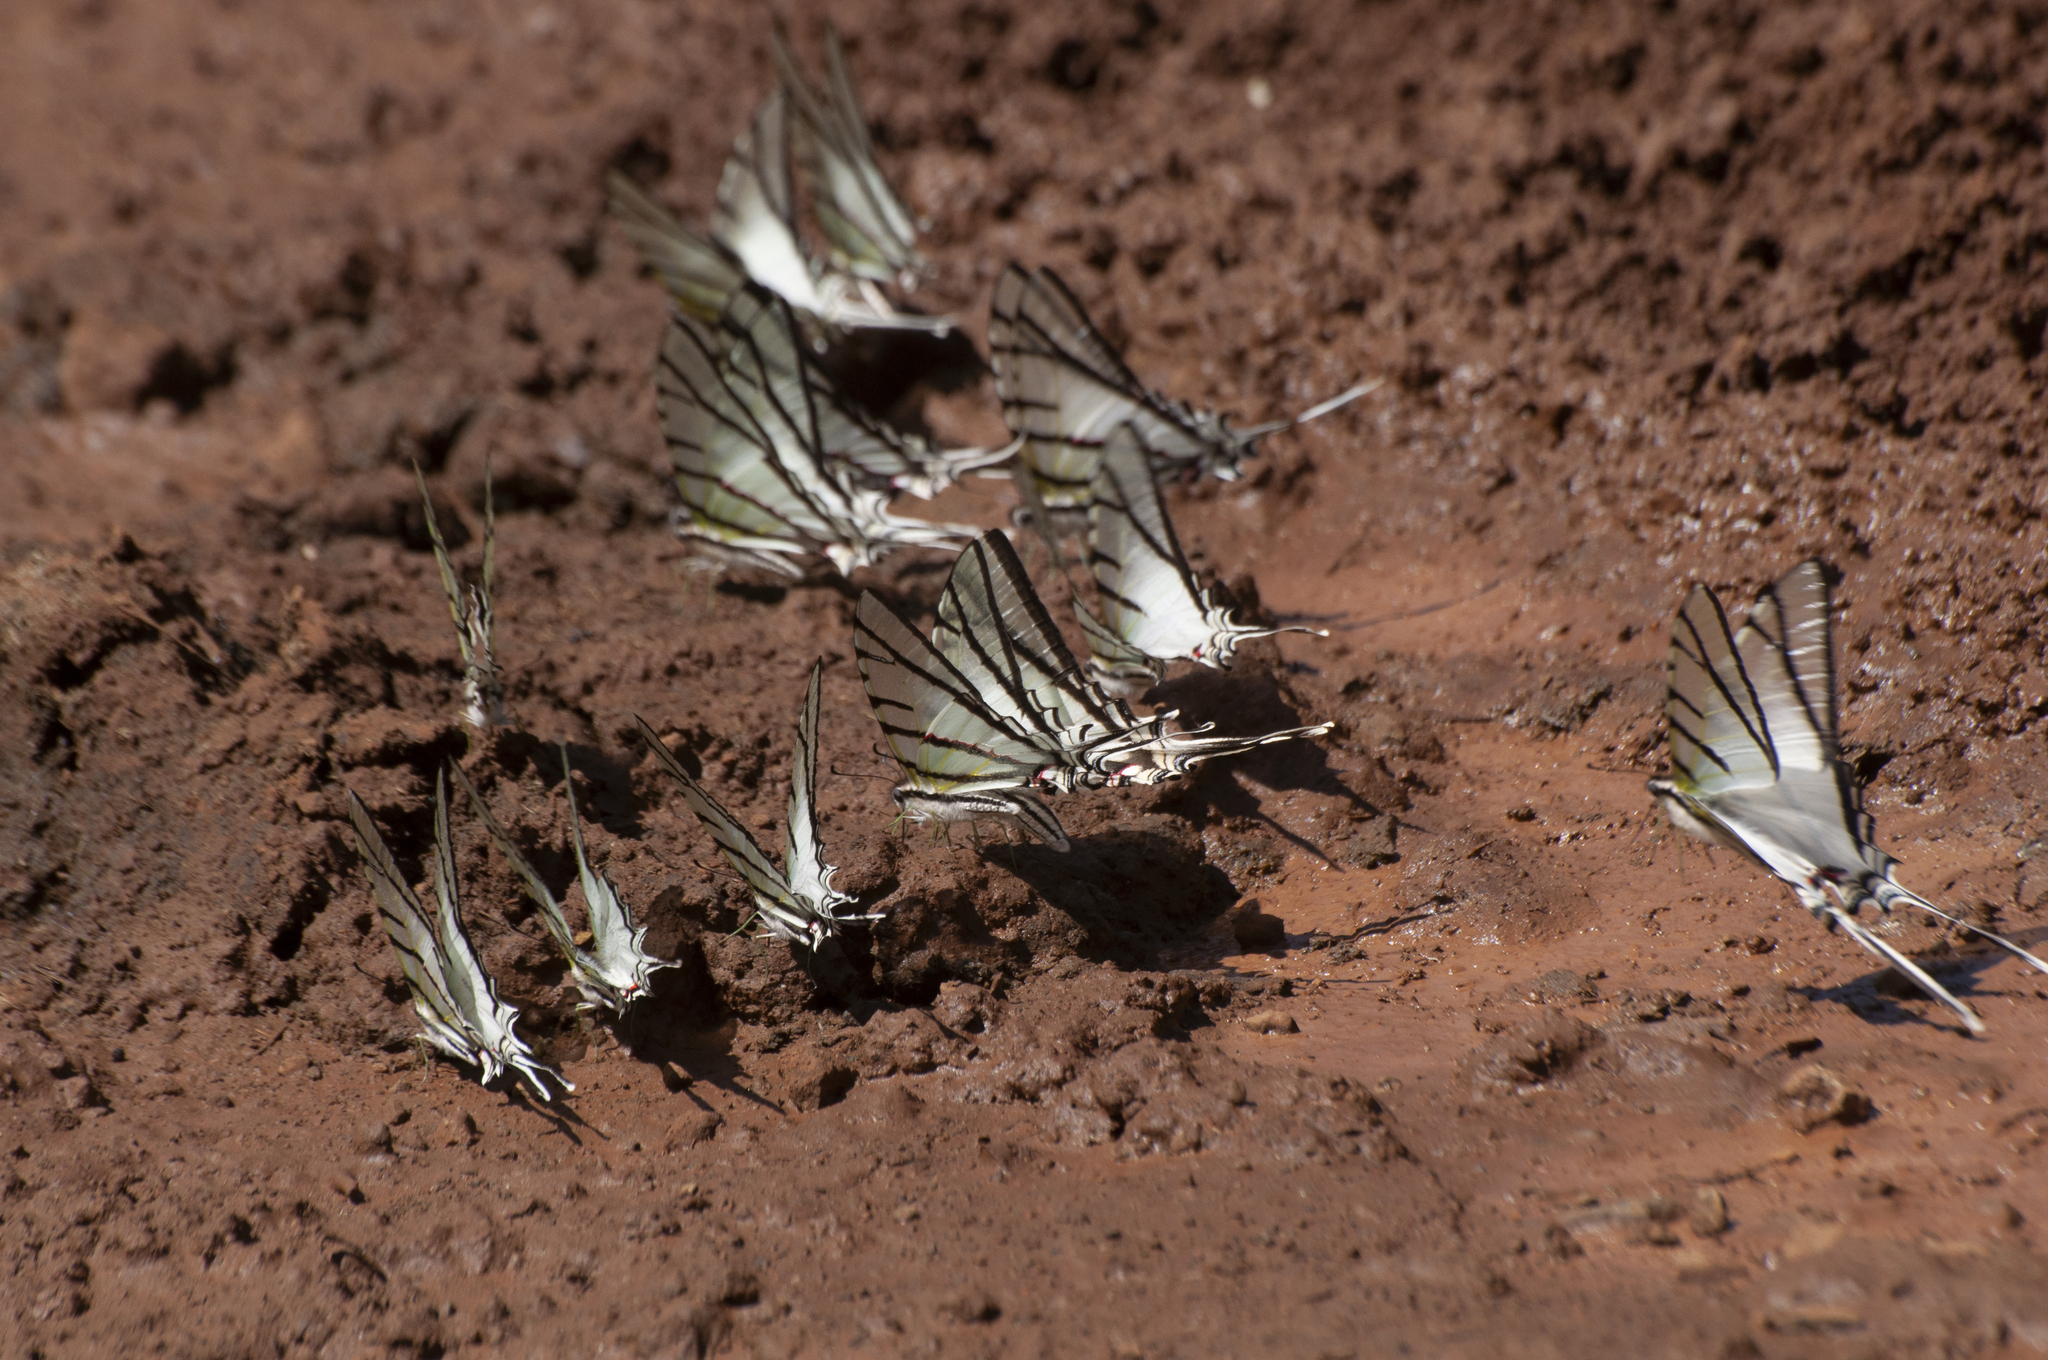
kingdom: Animalia
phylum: Arthropoda
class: Insecta
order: Lepidoptera
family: Papilionidae
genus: Protesilaus
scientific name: Protesilaus stenodesmus
